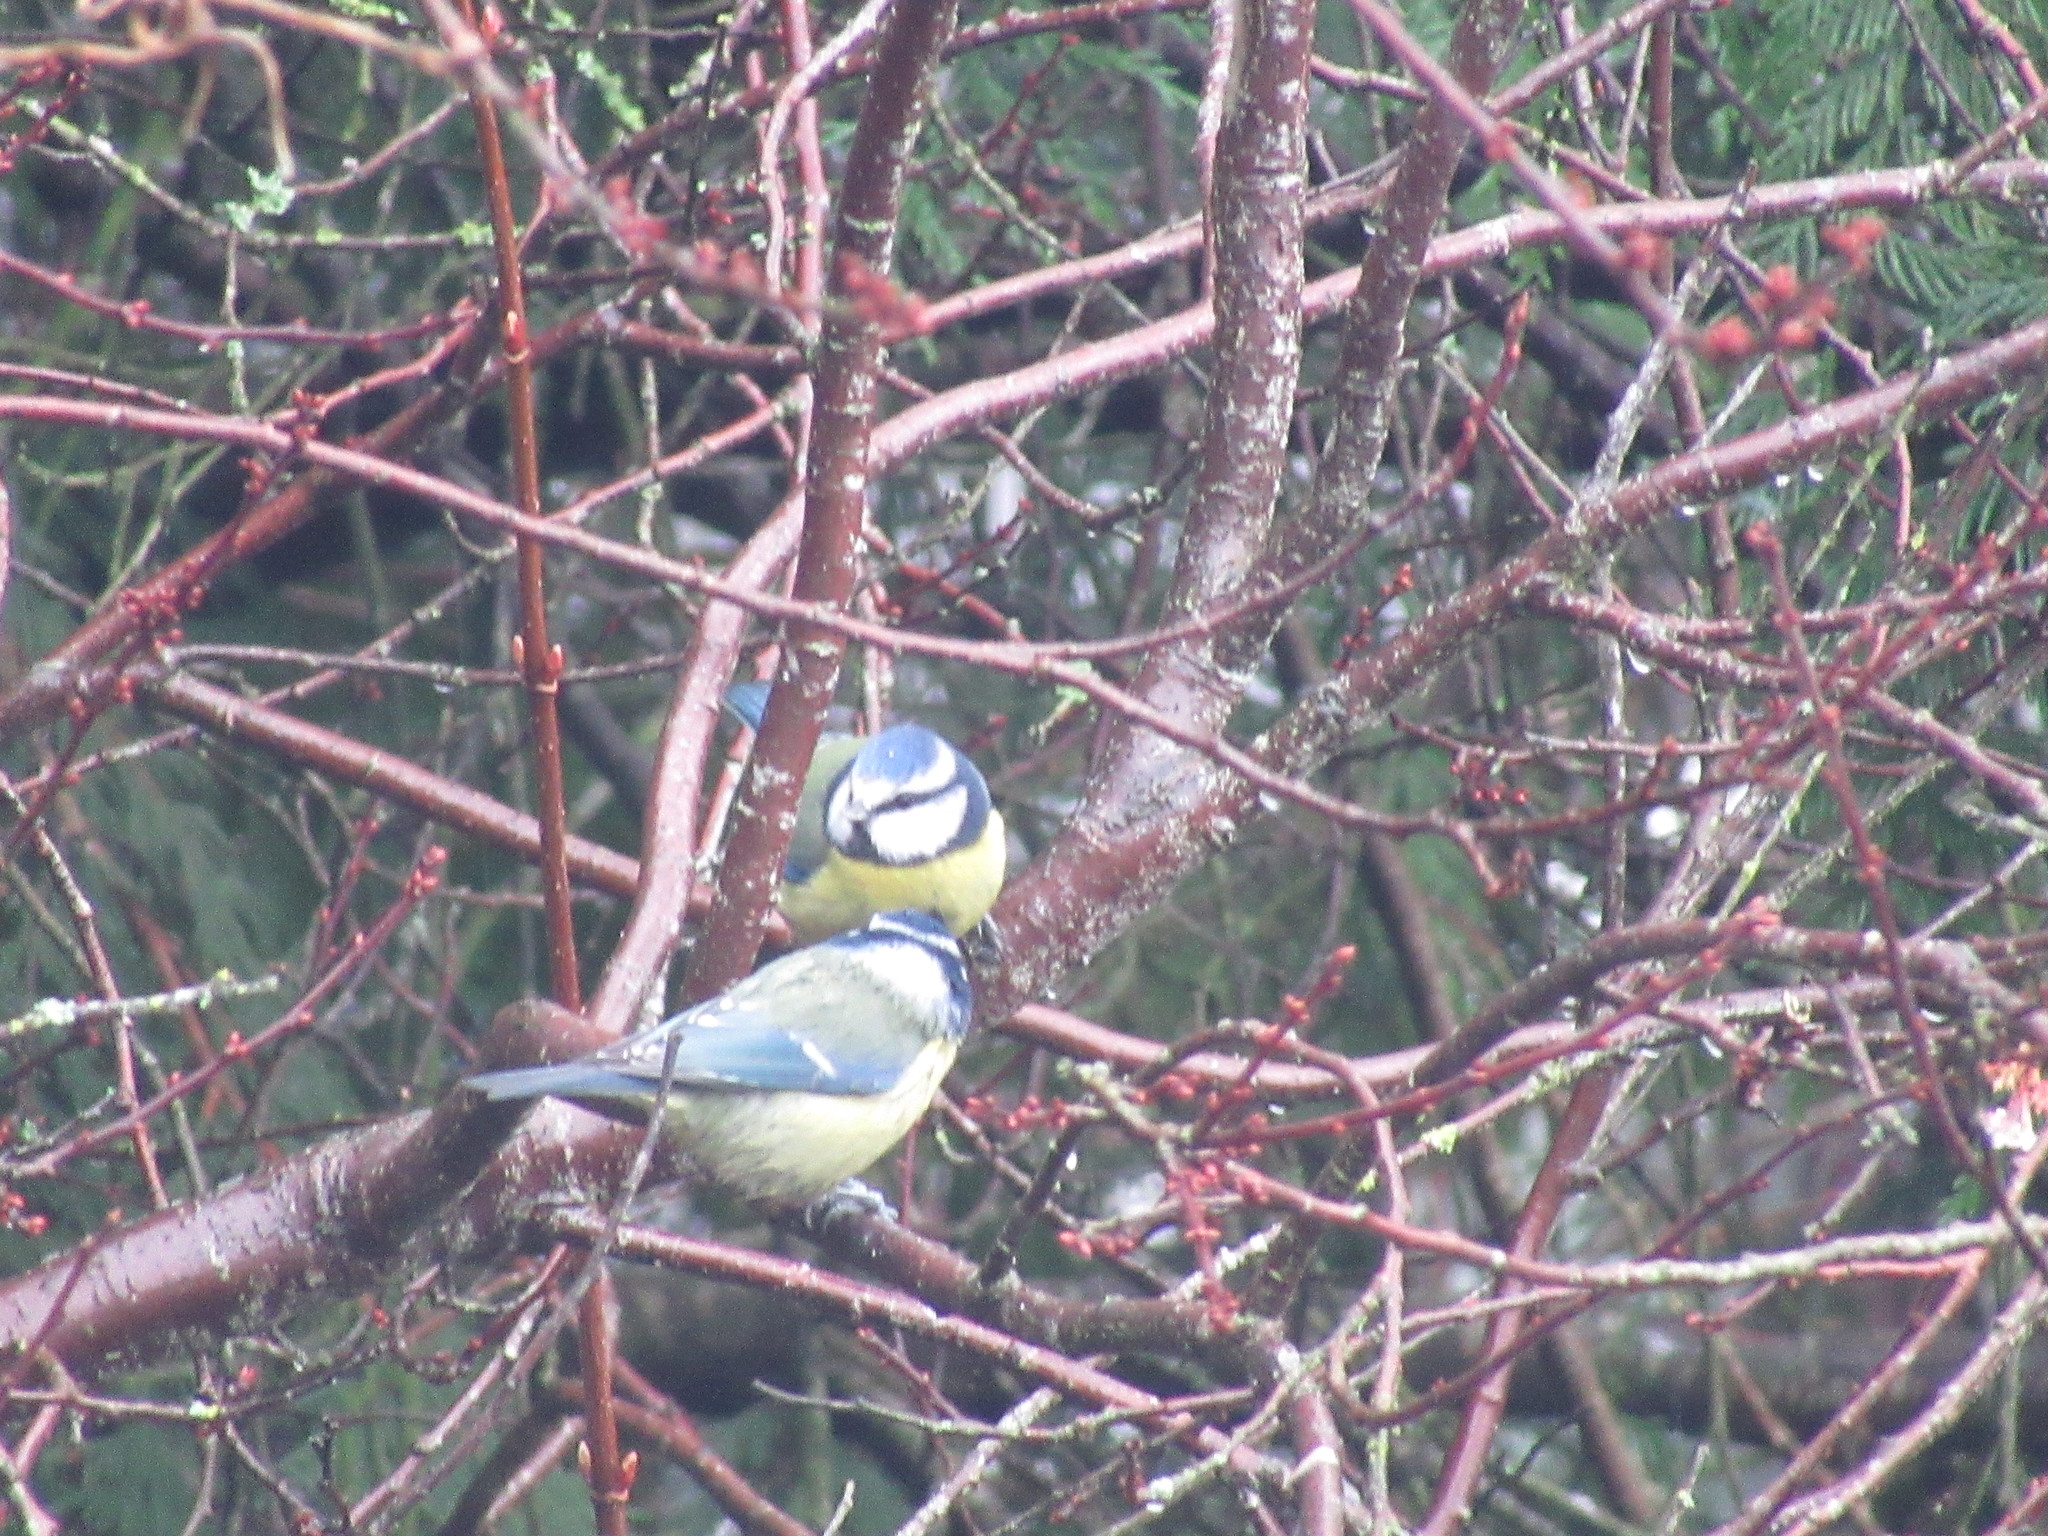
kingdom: Animalia
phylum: Chordata
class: Aves
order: Passeriformes
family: Paridae
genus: Cyanistes
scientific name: Cyanistes caeruleus
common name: Eurasian blue tit
